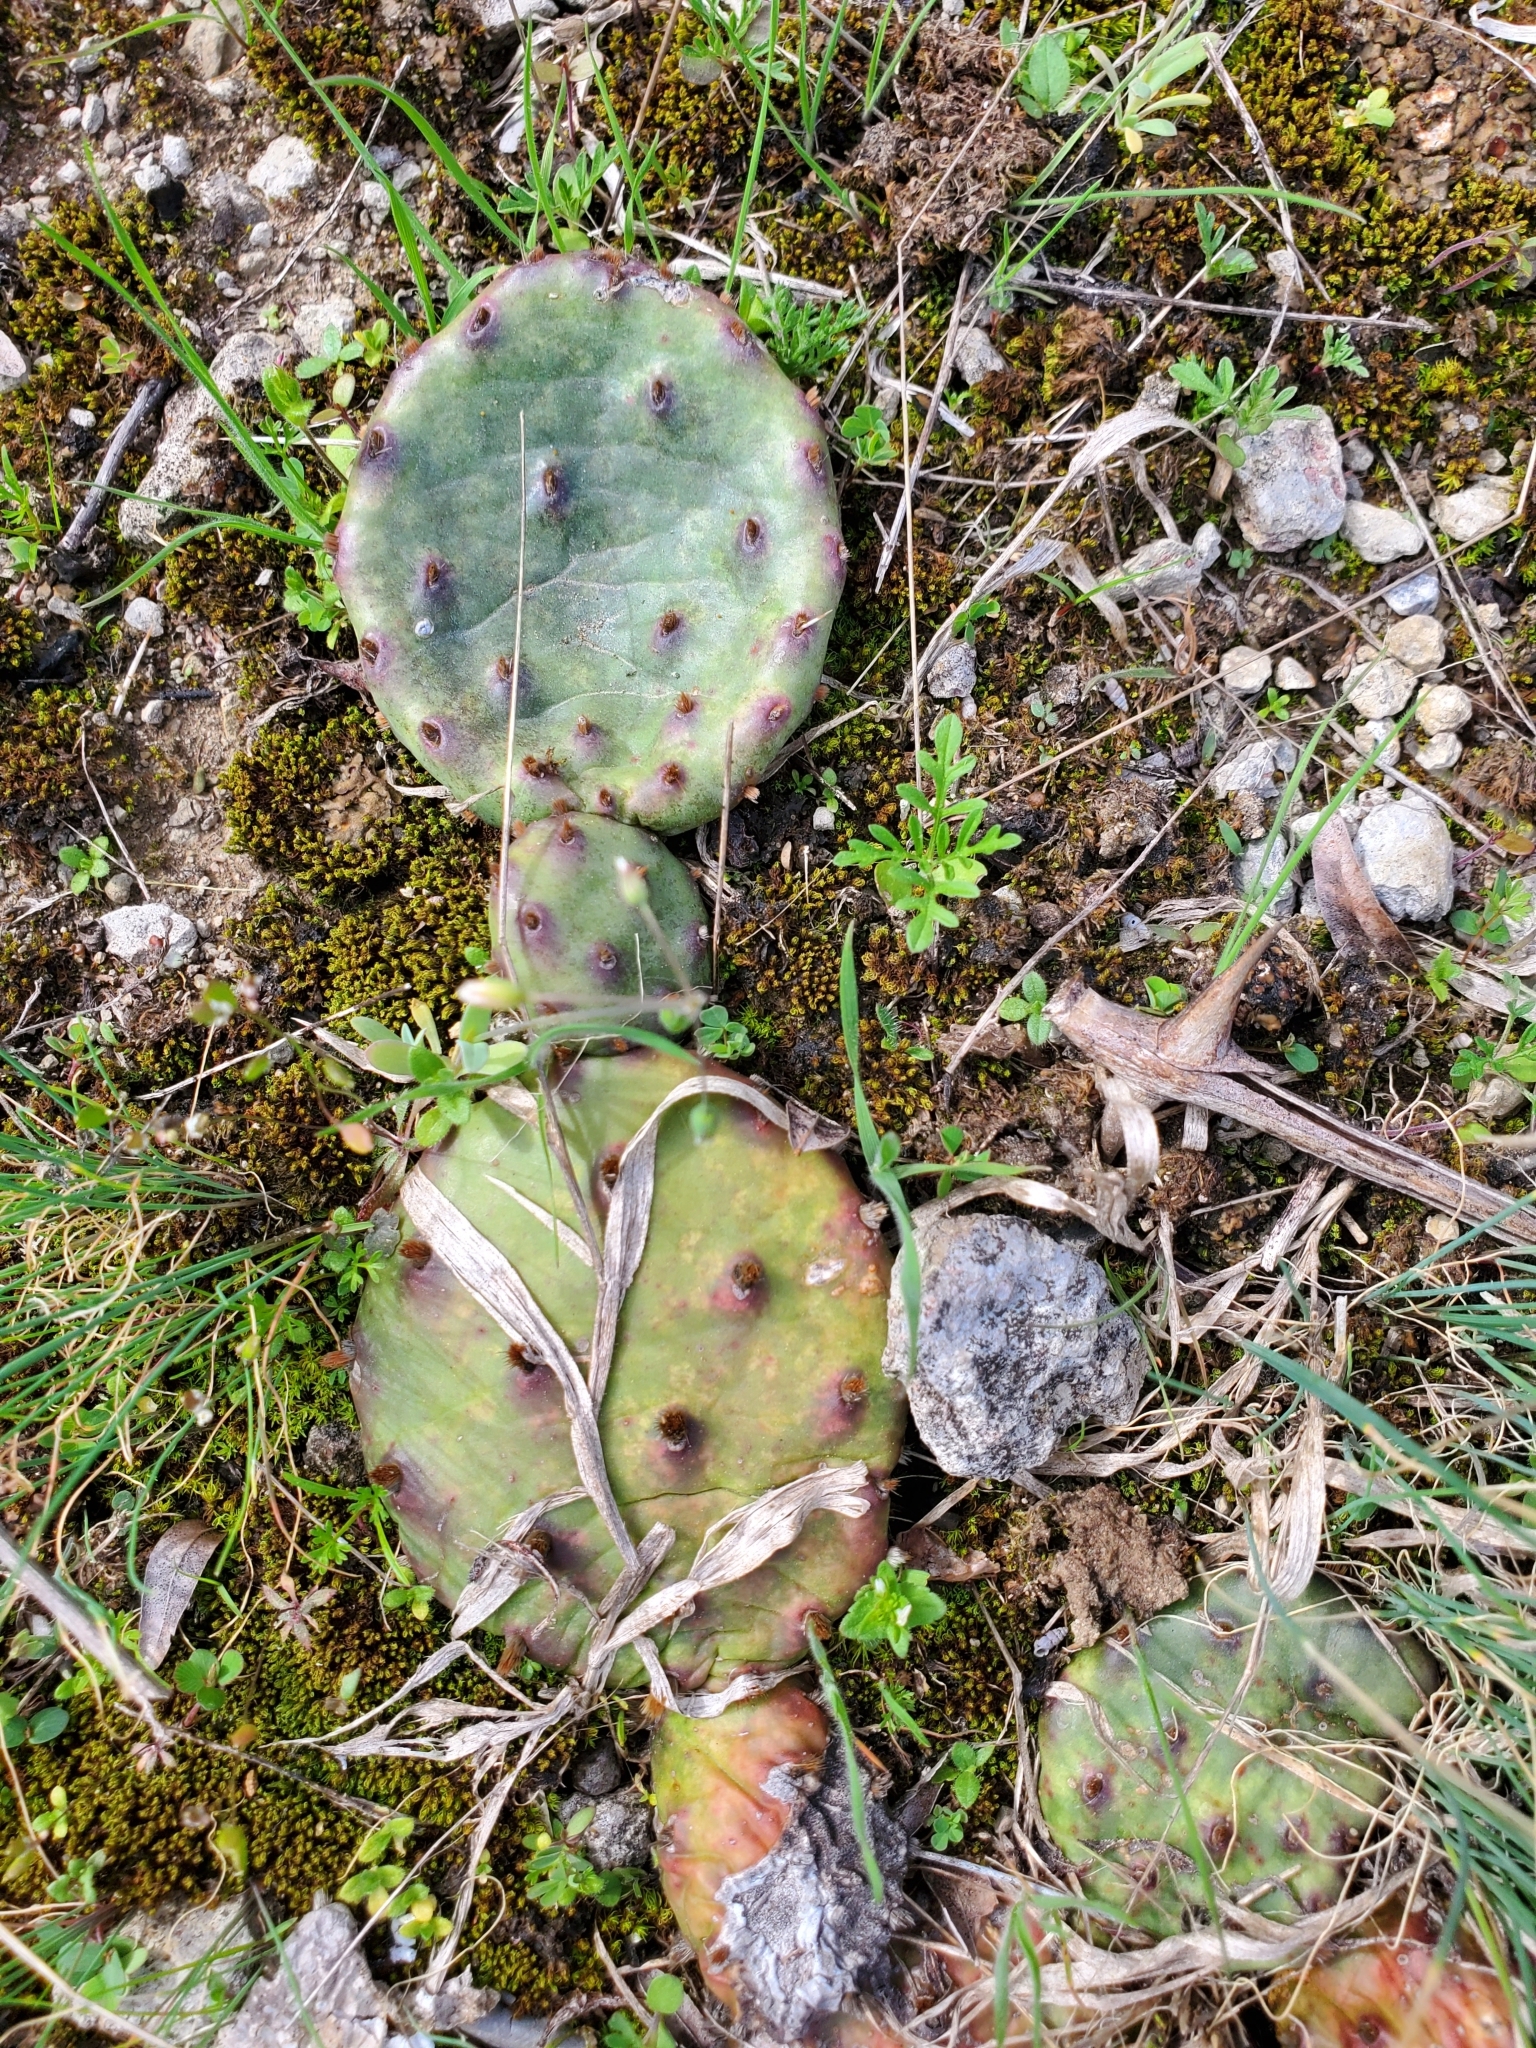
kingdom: Plantae
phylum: Tracheophyta
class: Magnoliopsida
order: Caryophyllales
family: Cactaceae
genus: Opuntia
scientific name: Opuntia humifusa
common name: Eastern prickly-pear
